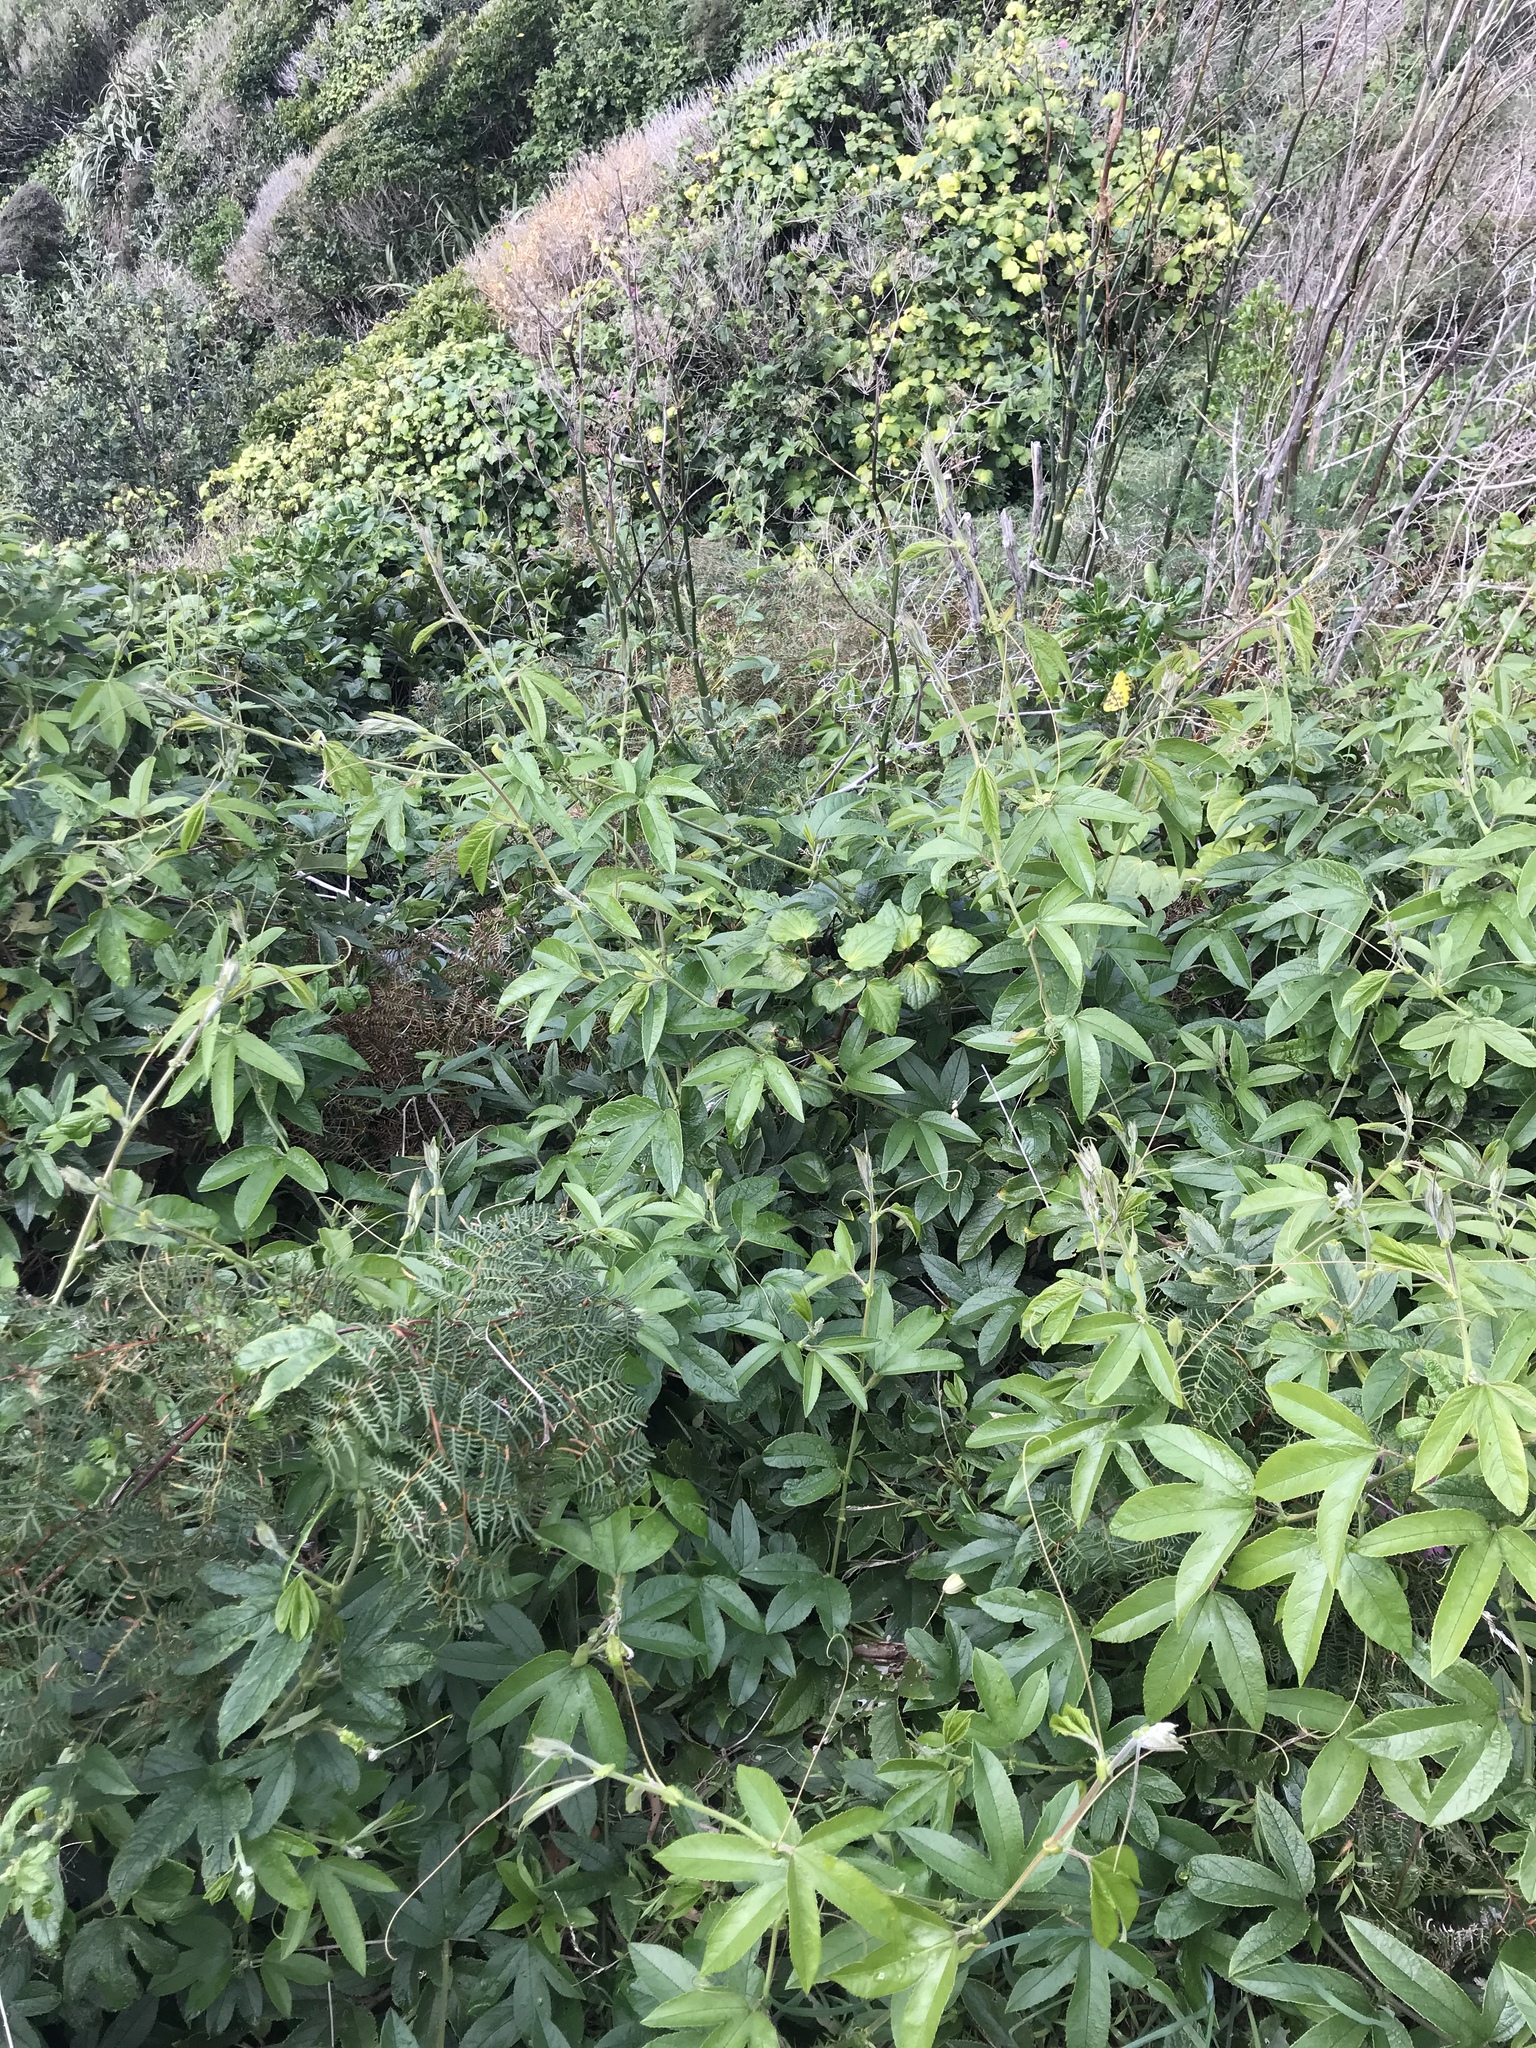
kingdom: Plantae
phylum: Tracheophyta
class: Magnoliopsida
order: Malpighiales
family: Passifloraceae
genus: Passiflora
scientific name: Passiflora tripartita
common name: Banana poka
